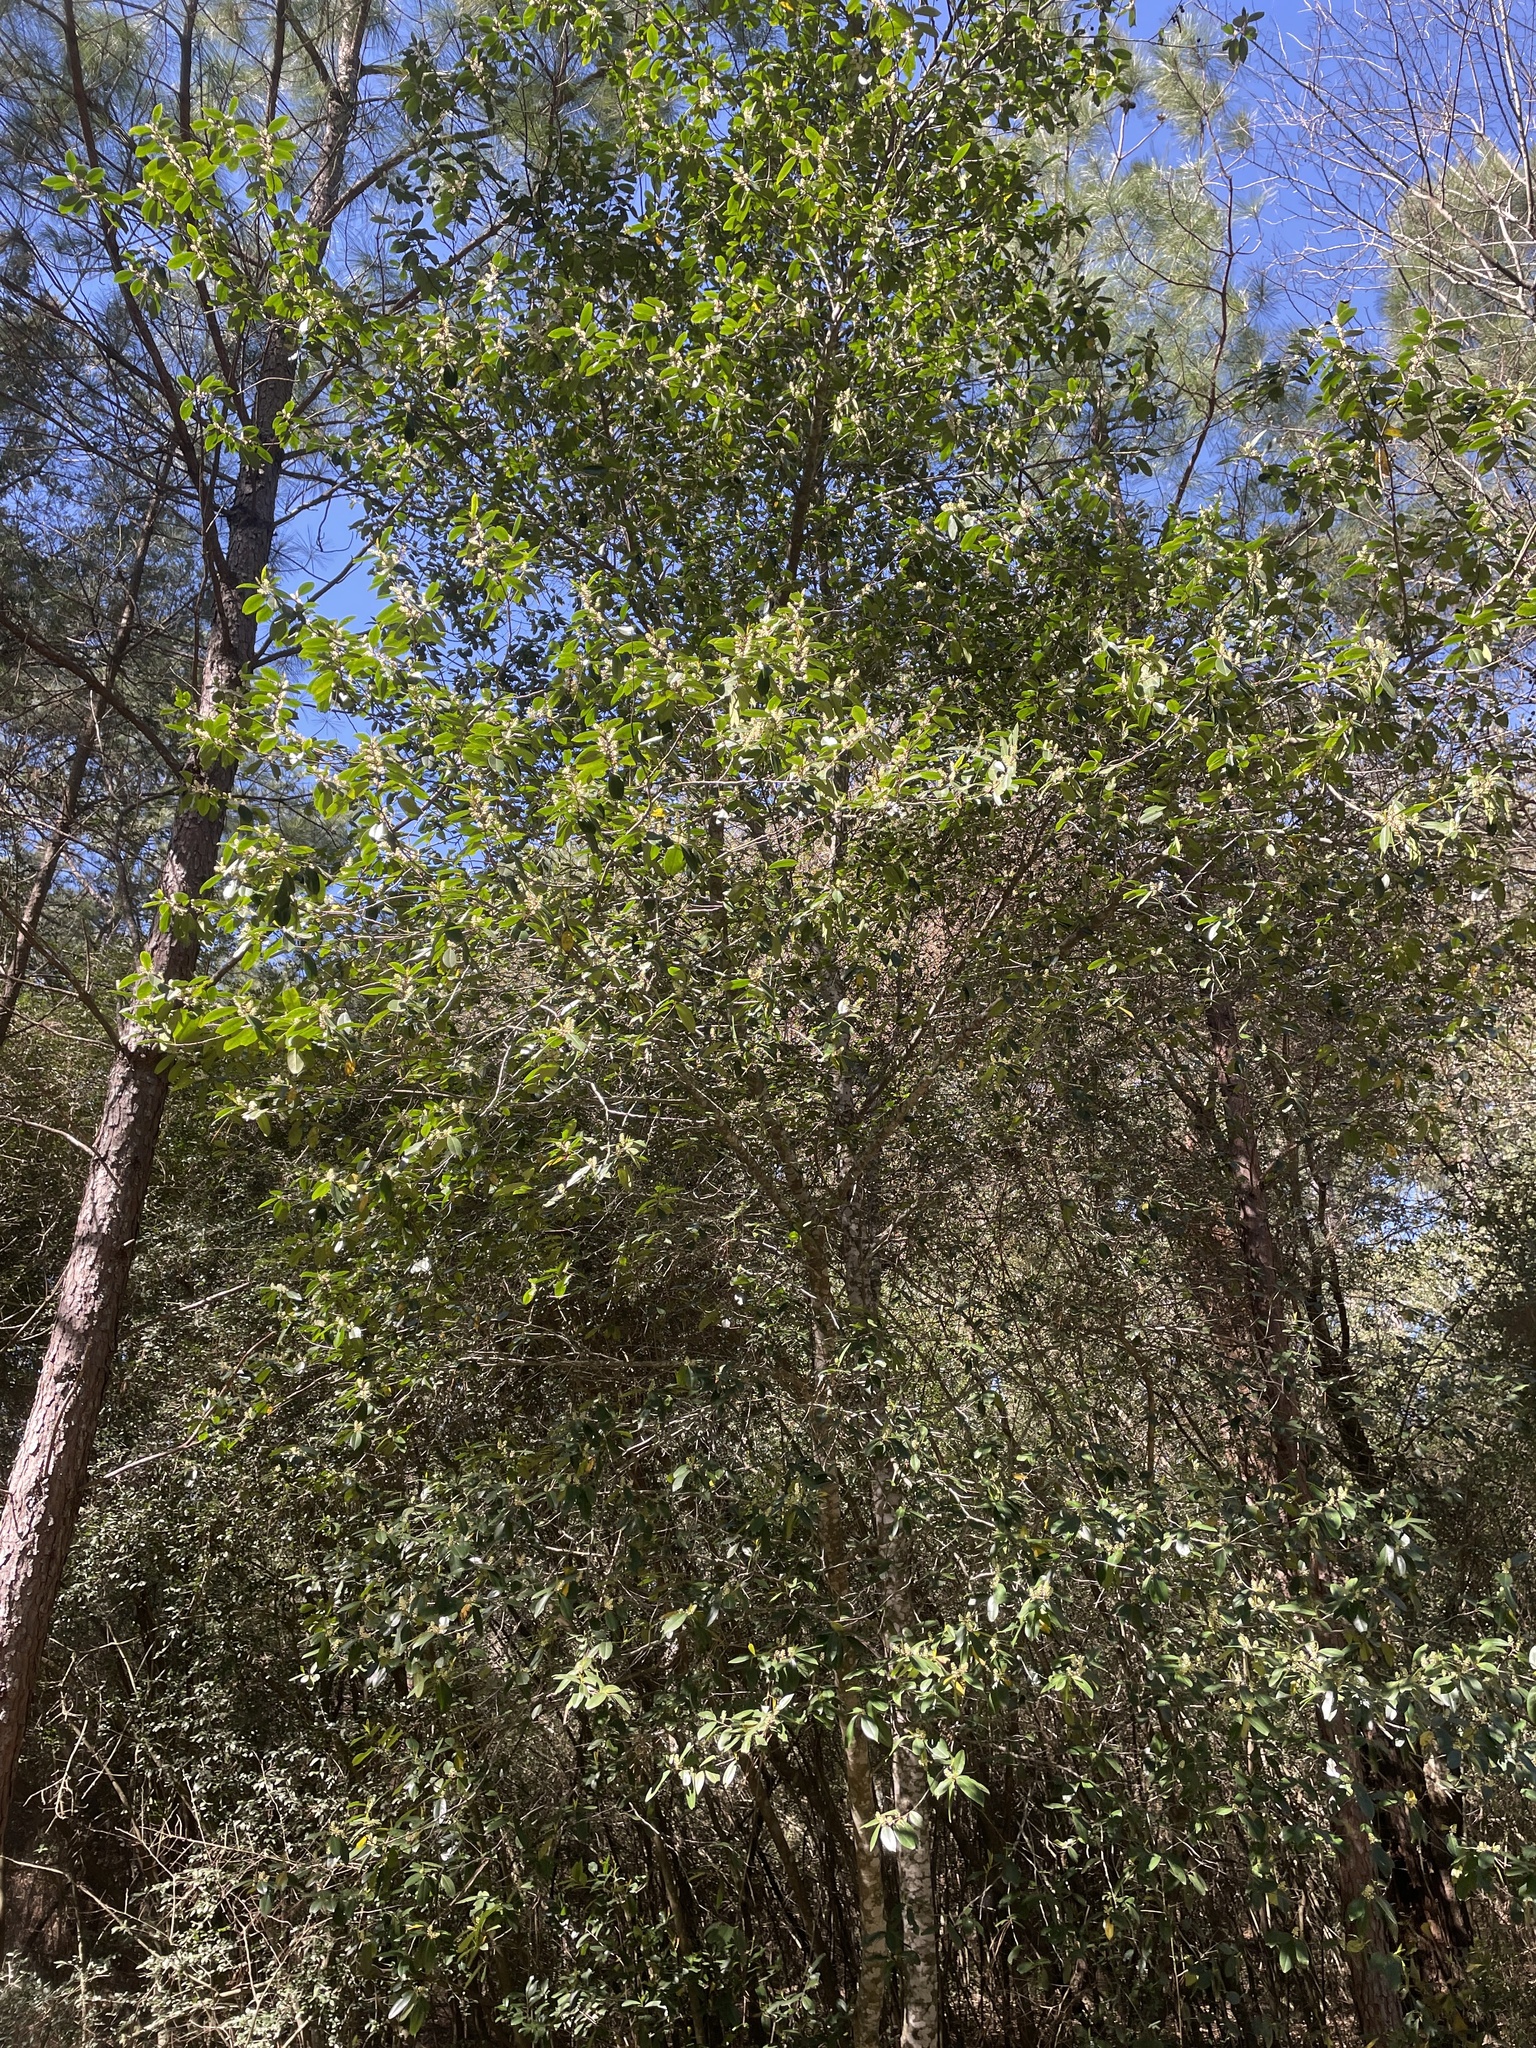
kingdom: Plantae
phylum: Tracheophyta
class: Magnoliopsida
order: Rosales
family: Rosaceae
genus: Prunus
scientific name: Prunus caroliniana
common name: Carolina laurel cherry
